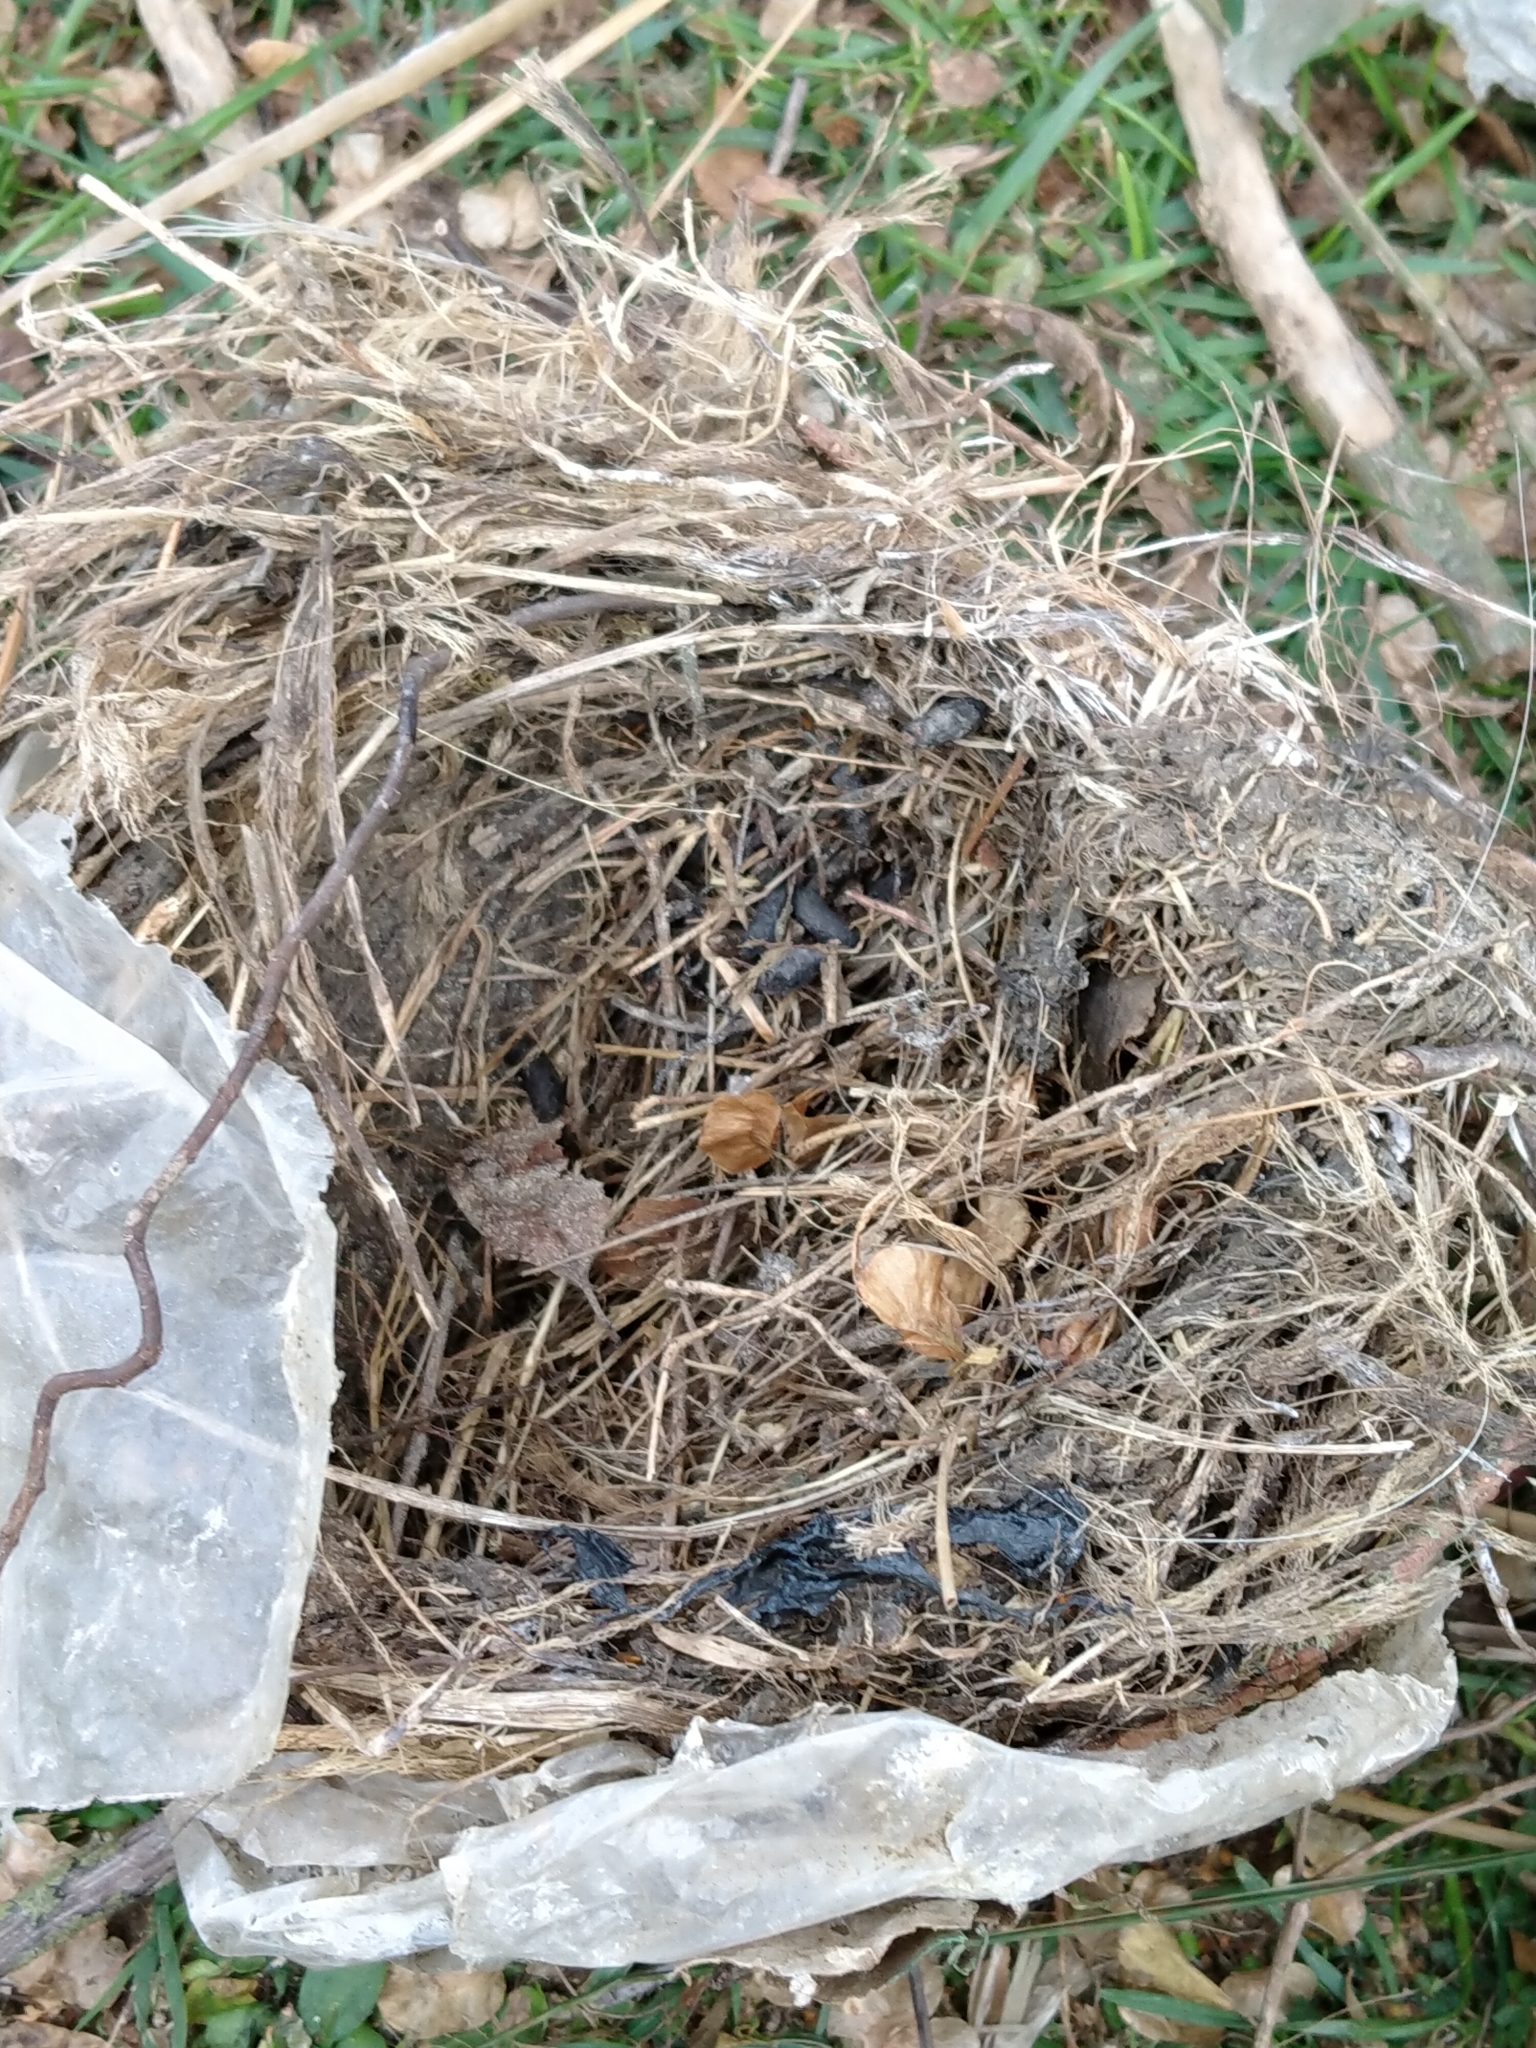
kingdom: Animalia
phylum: Chordata
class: Aves
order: Passeriformes
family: Passeridae
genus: Passer
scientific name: Passer domesticus
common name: House sparrow
